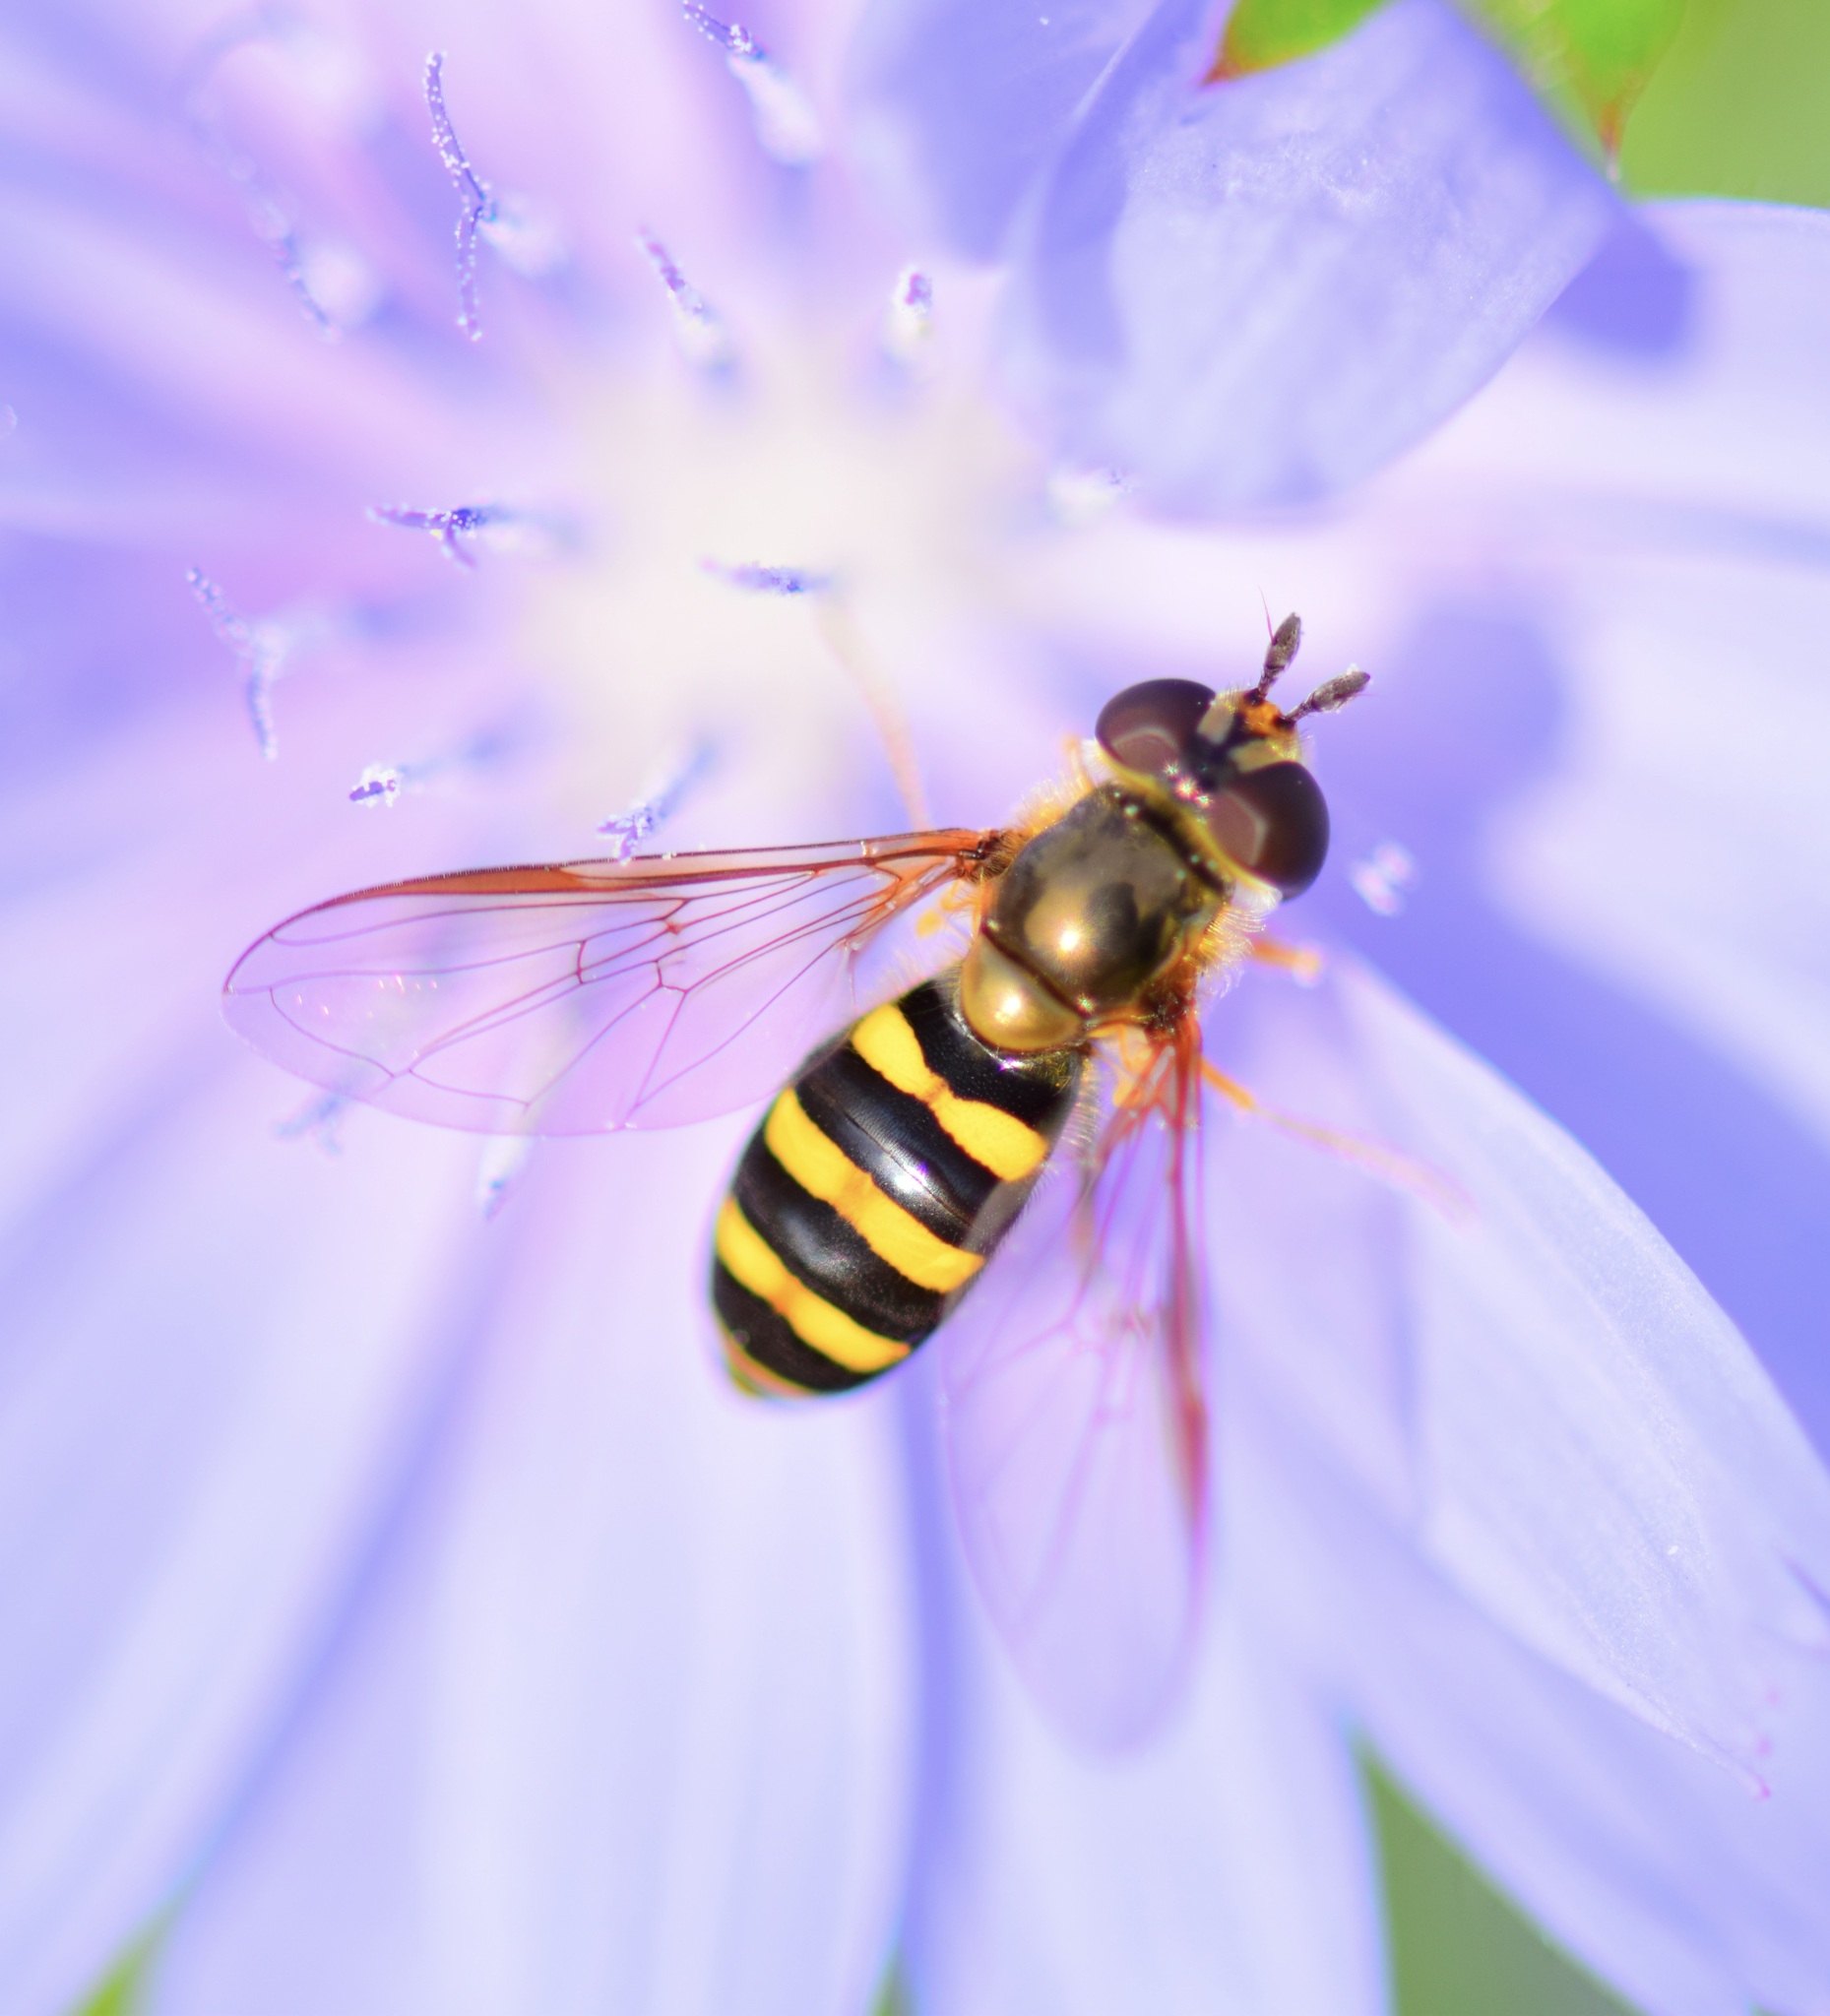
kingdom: Animalia
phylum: Arthropoda
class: Insecta
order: Diptera
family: Syrphidae
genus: Eupeodes
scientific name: Eupeodes
